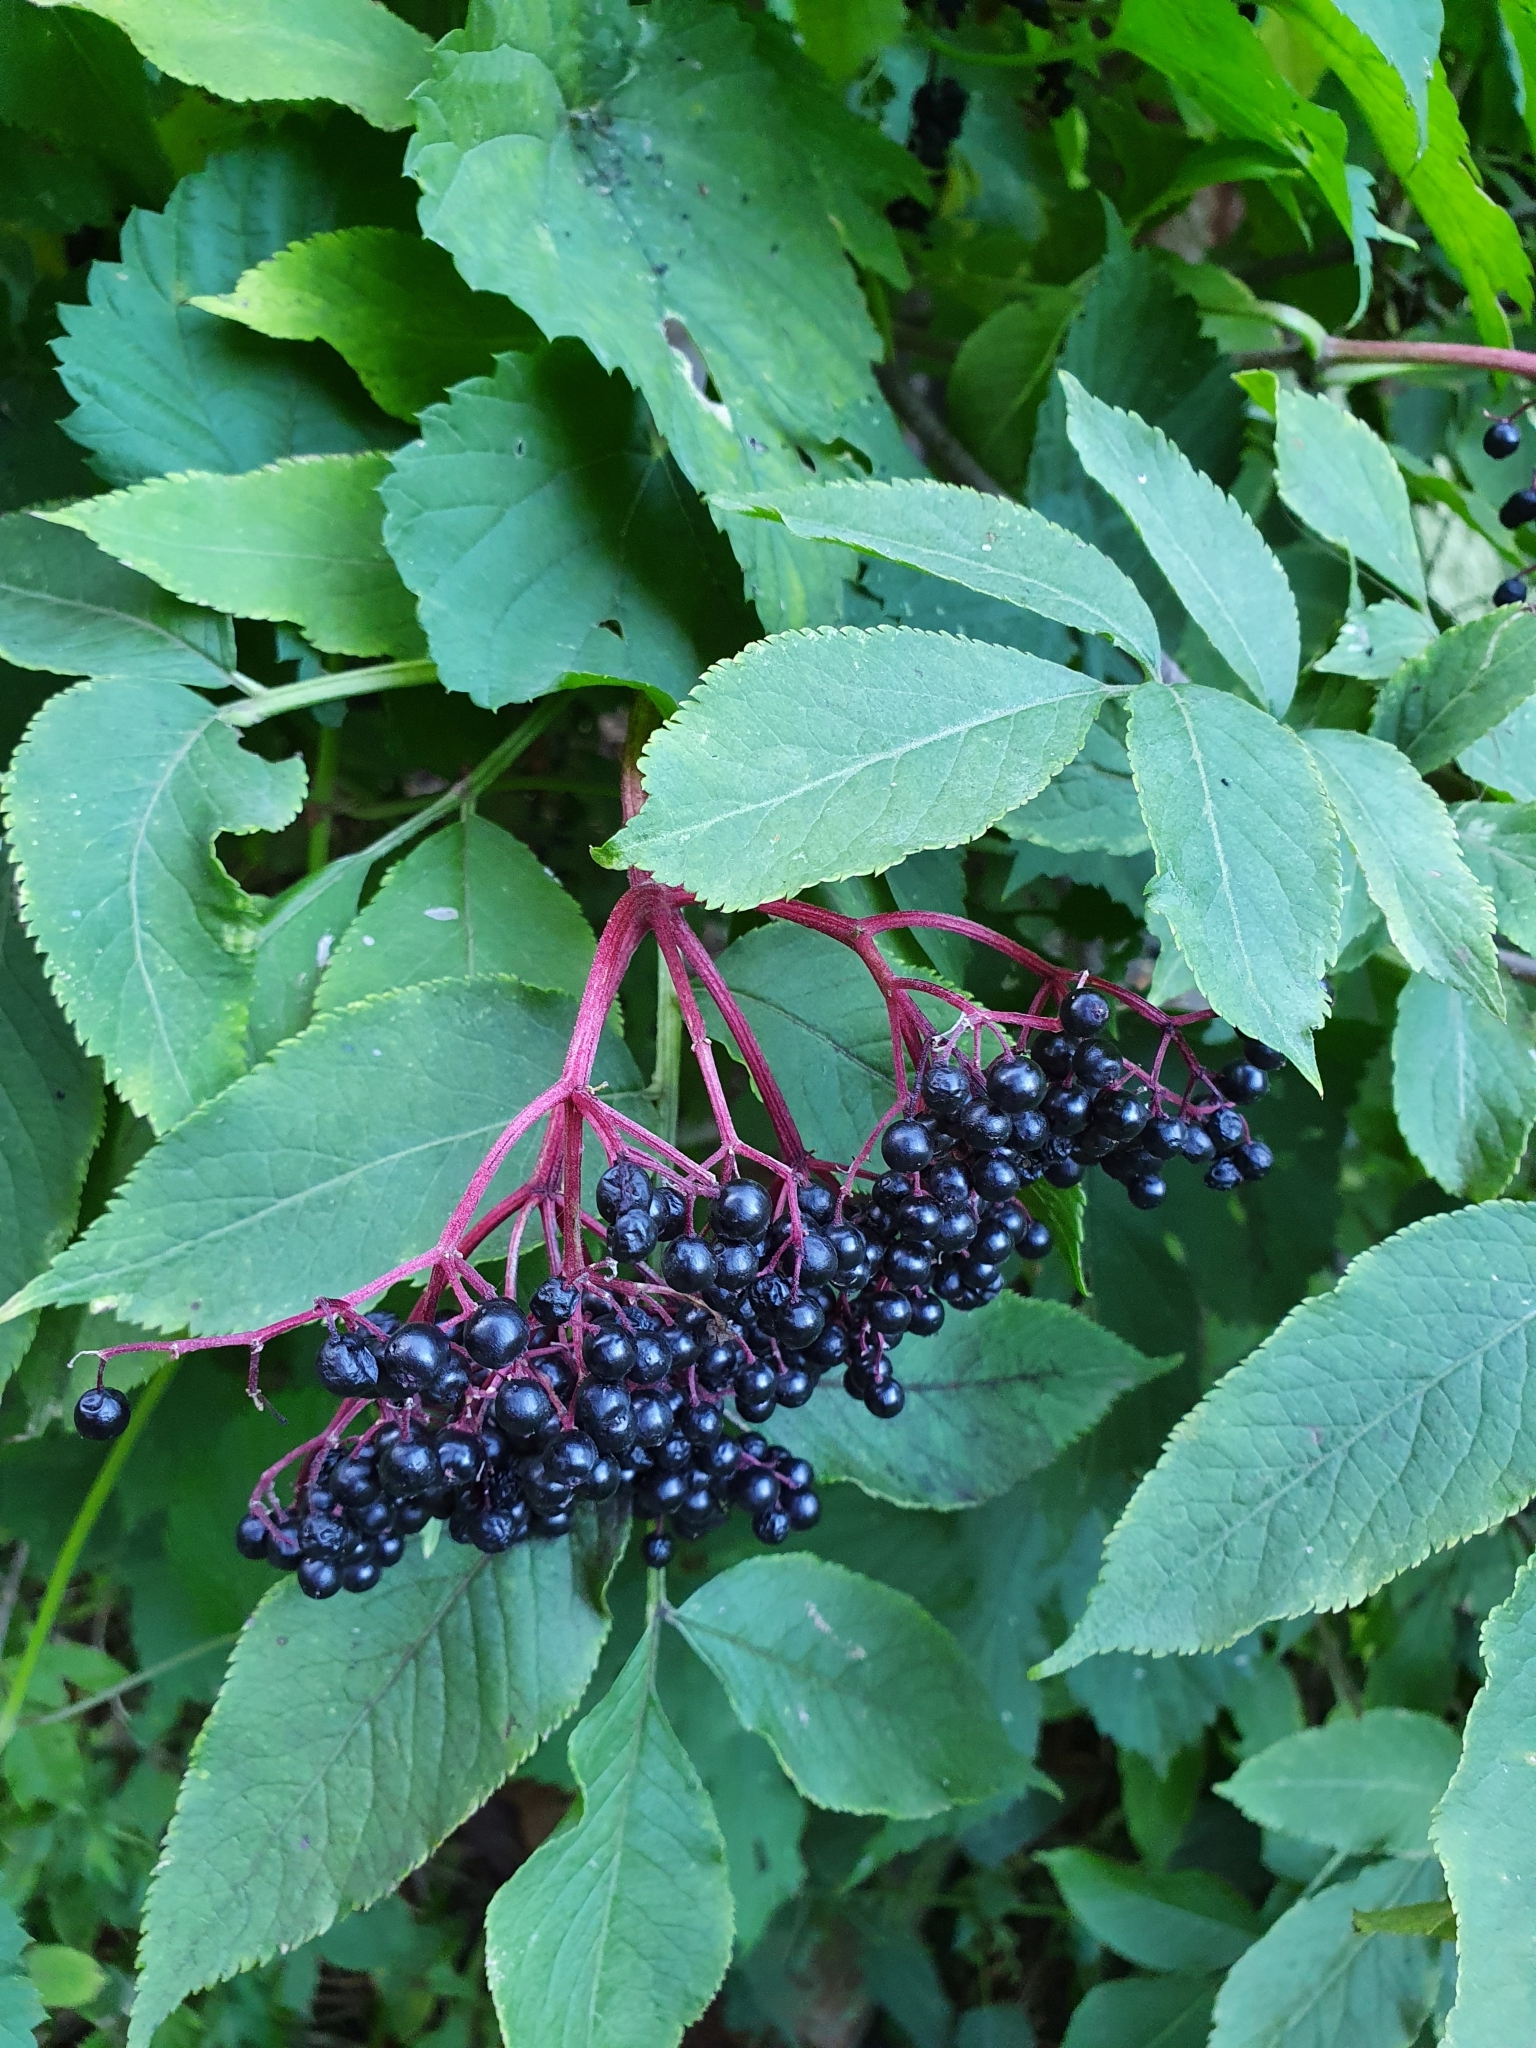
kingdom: Plantae
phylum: Tracheophyta
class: Magnoliopsida
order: Dipsacales
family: Viburnaceae
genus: Sambucus
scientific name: Sambucus nigra
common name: Elder
